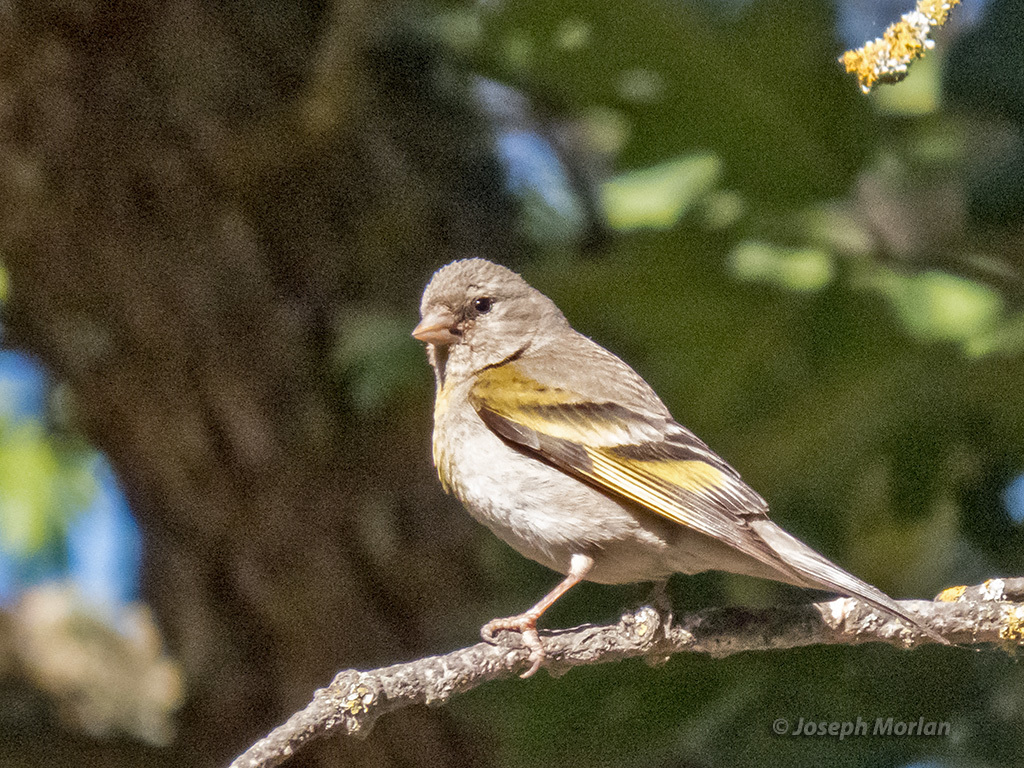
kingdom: Animalia
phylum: Chordata
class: Aves
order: Passeriformes
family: Fringillidae
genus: Spinus
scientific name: Spinus lawrencei
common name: Lawrence's goldfinch
